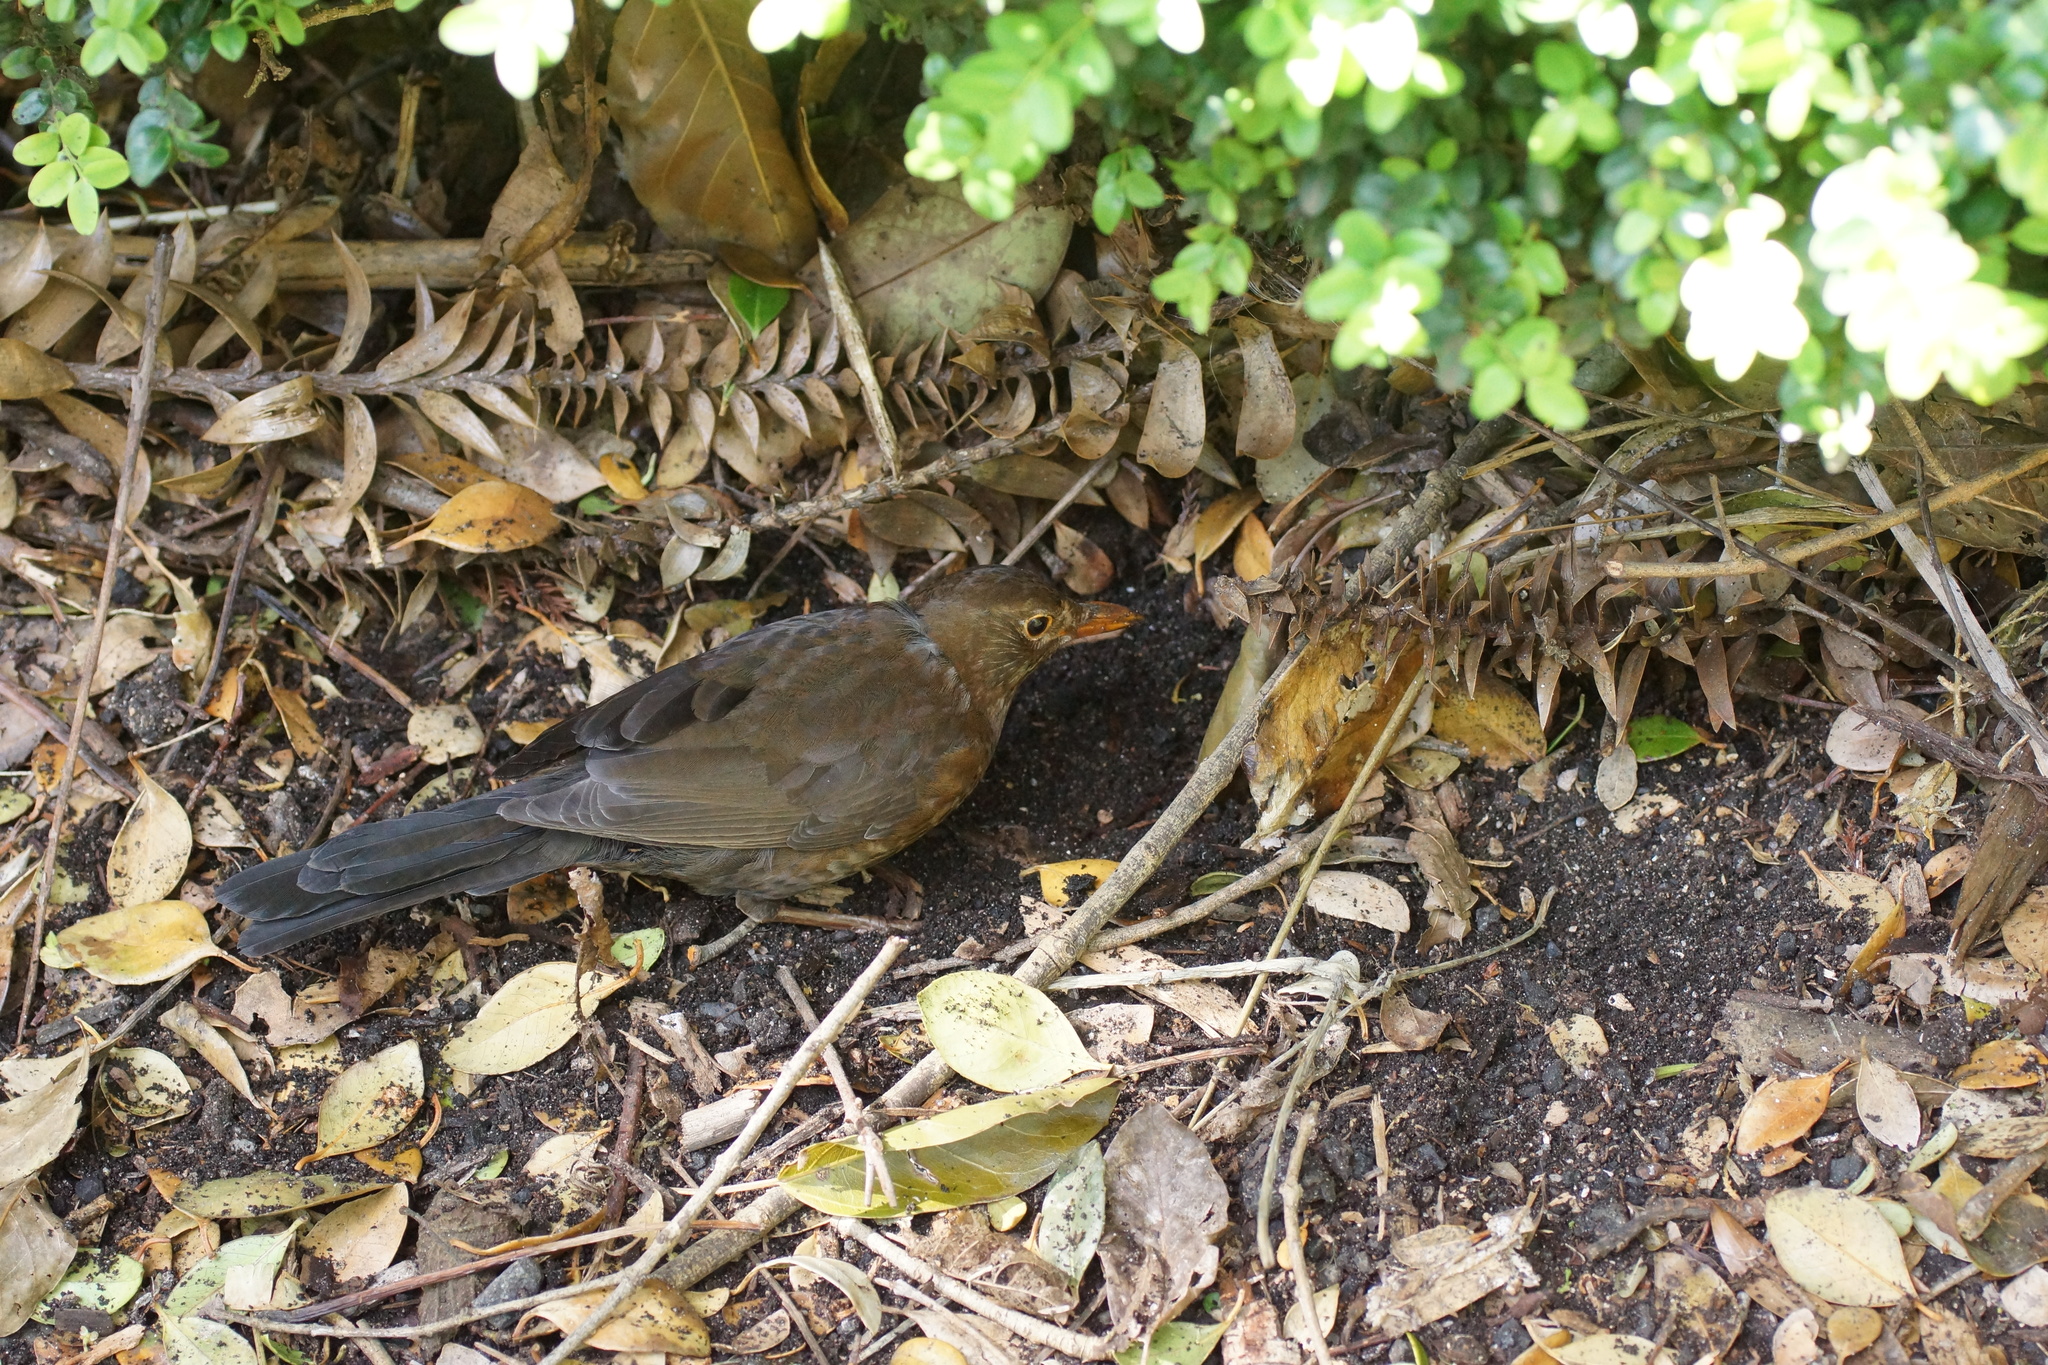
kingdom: Animalia
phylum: Chordata
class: Aves
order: Passeriformes
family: Turdidae
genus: Turdus
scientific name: Turdus merula
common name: Common blackbird
